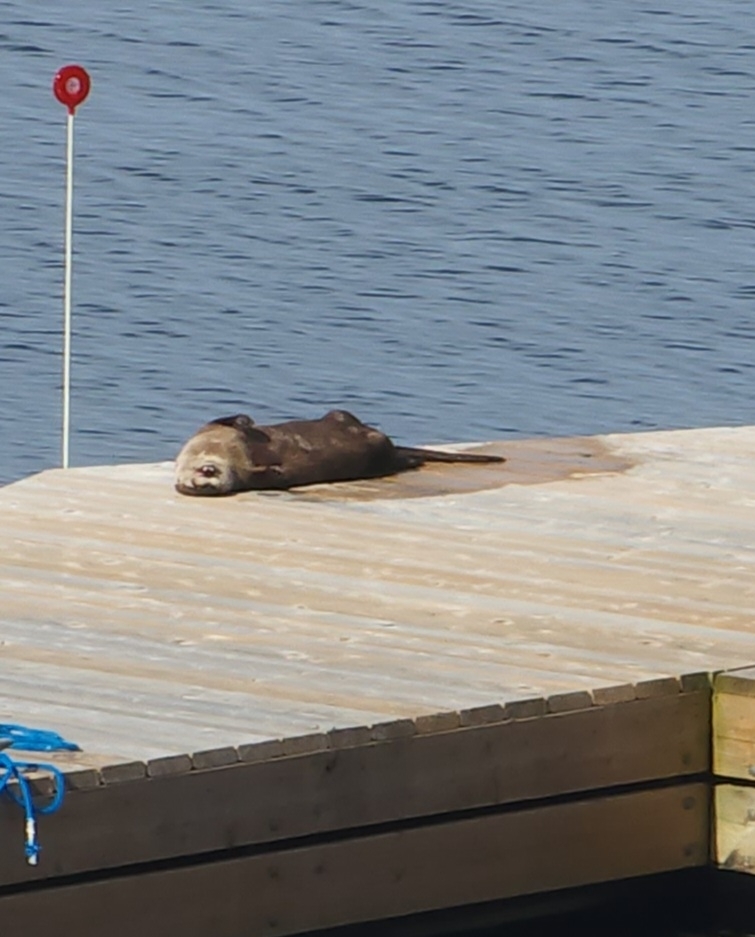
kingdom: Animalia
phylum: Chordata
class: Mammalia
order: Carnivora
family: Mustelidae
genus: Lontra
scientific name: Lontra canadensis
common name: North american river otter
